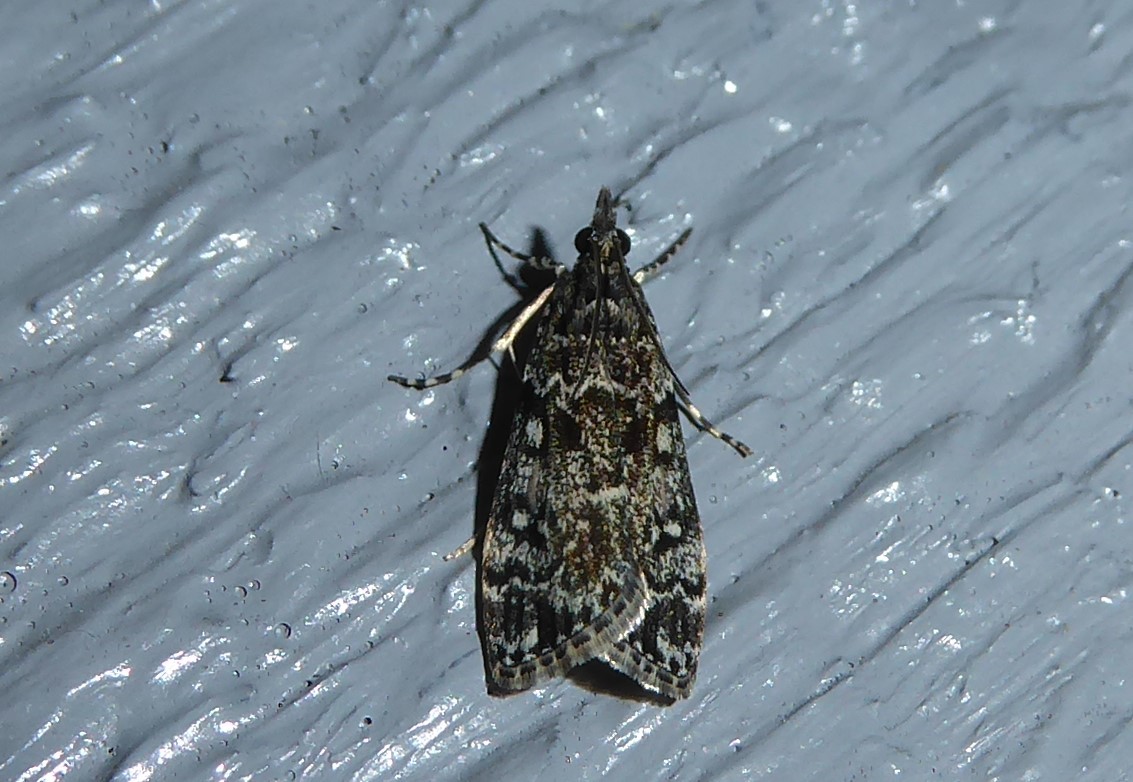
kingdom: Animalia
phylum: Arthropoda
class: Insecta
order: Lepidoptera
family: Crambidae
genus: Eudonia
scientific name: Eudonia philerga
